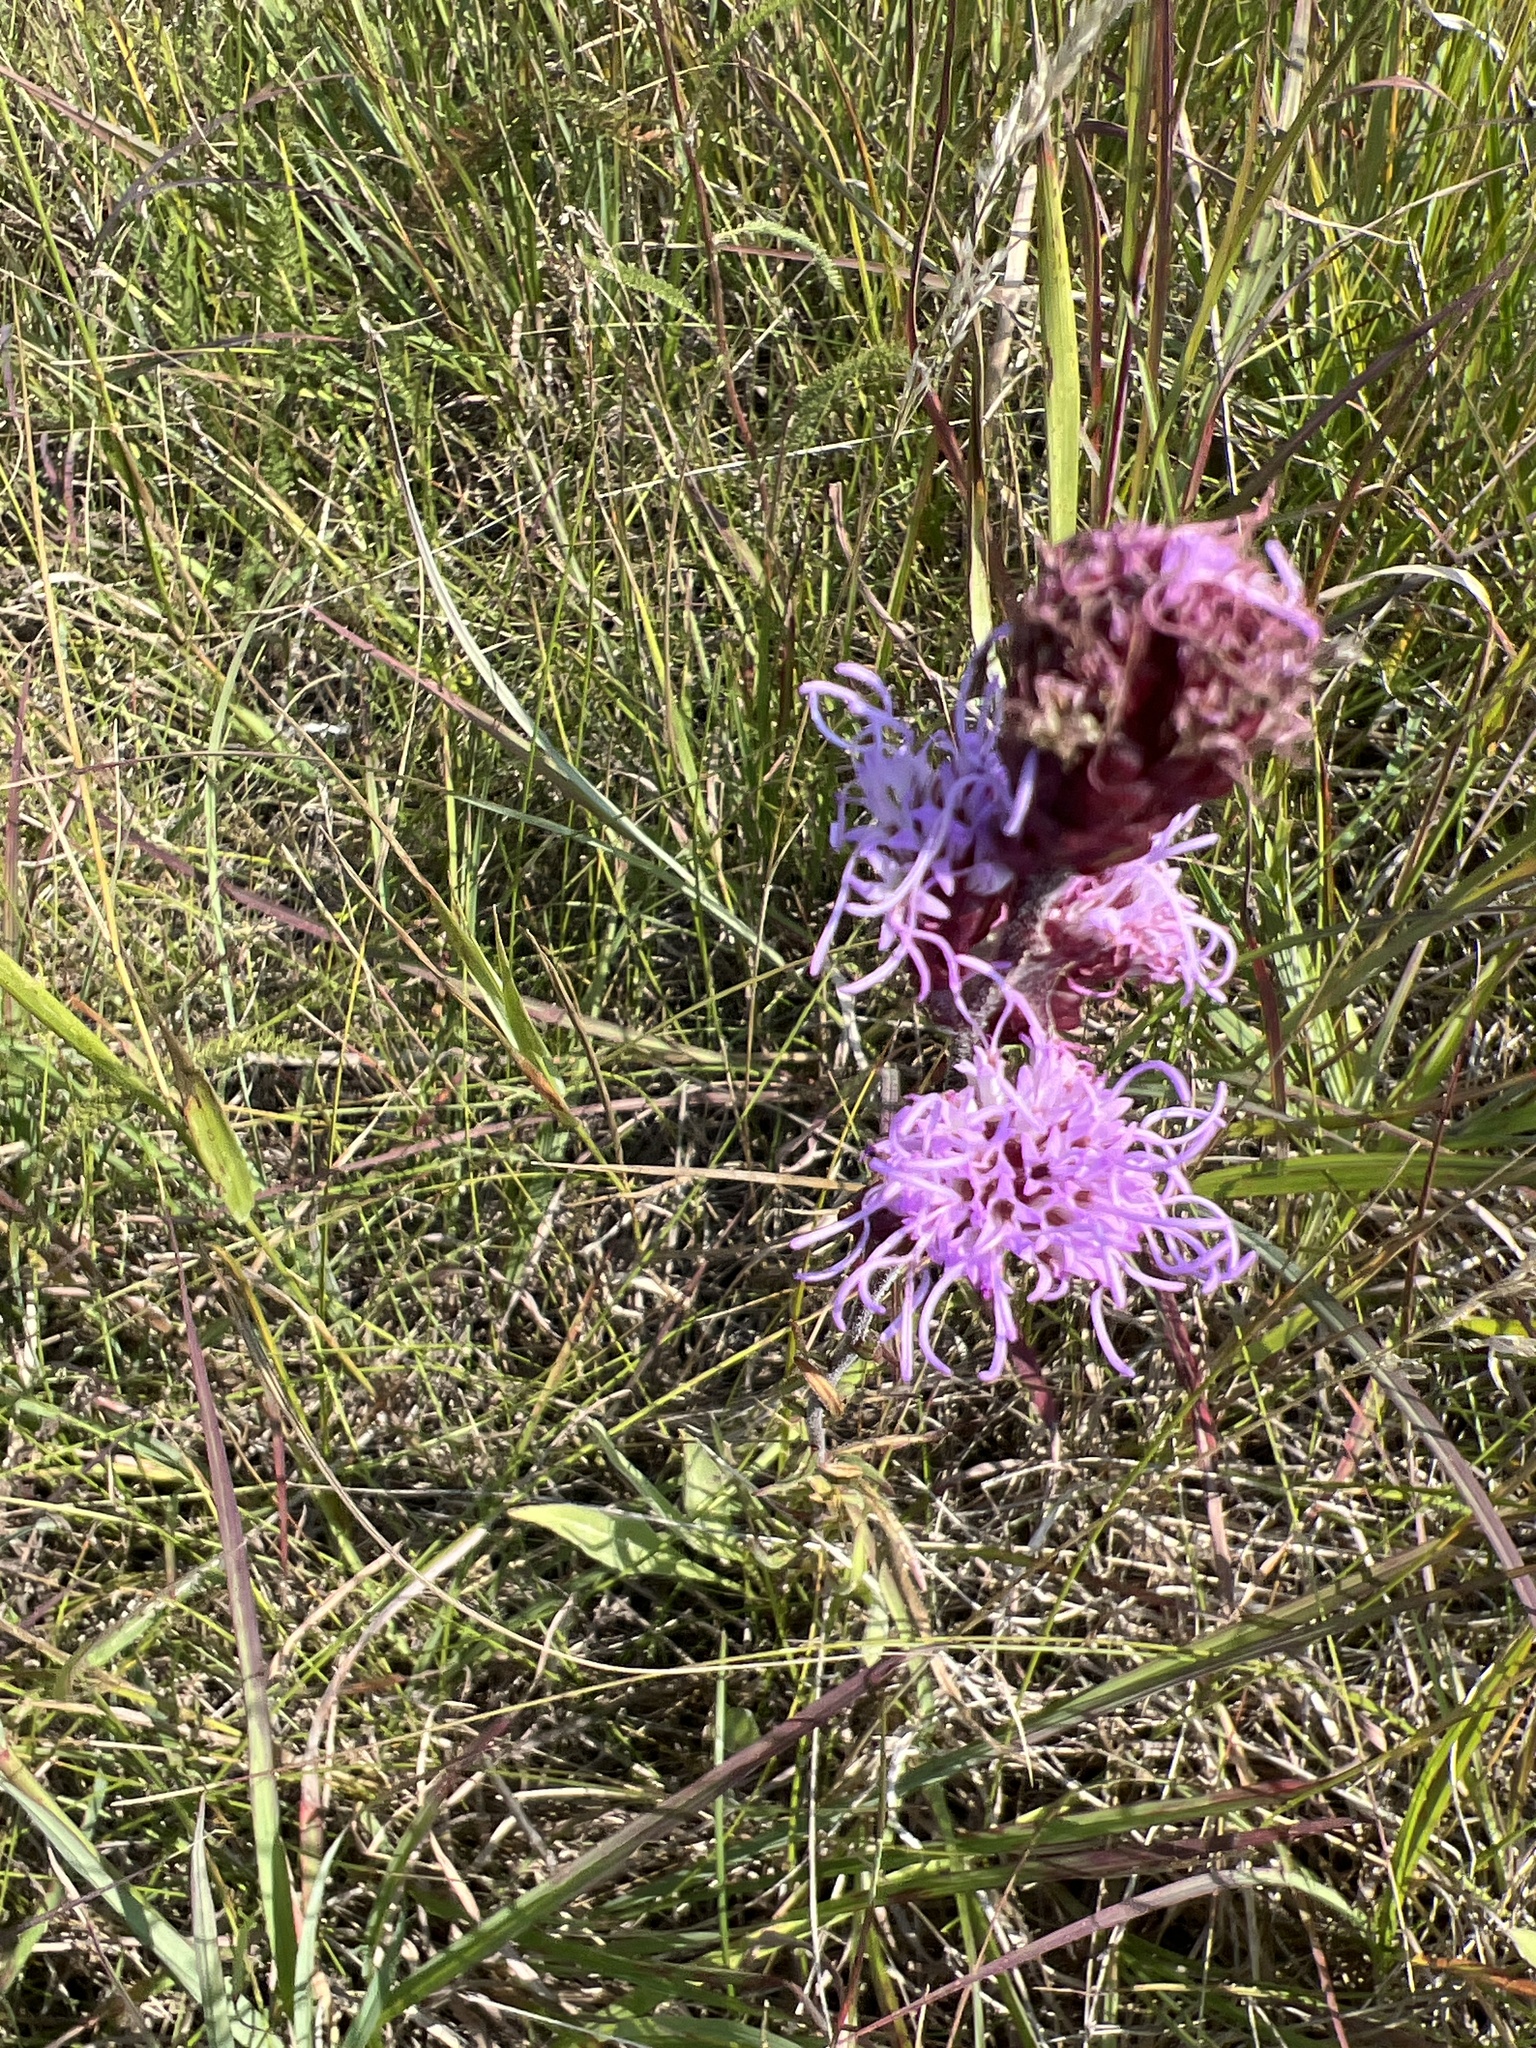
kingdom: Plantae
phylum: Tracheophyta
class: Magnoliopsida
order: Asterales
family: Asteraceae
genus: Liatris
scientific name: Liatris ligulistylis
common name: Northern plains gayfeather
